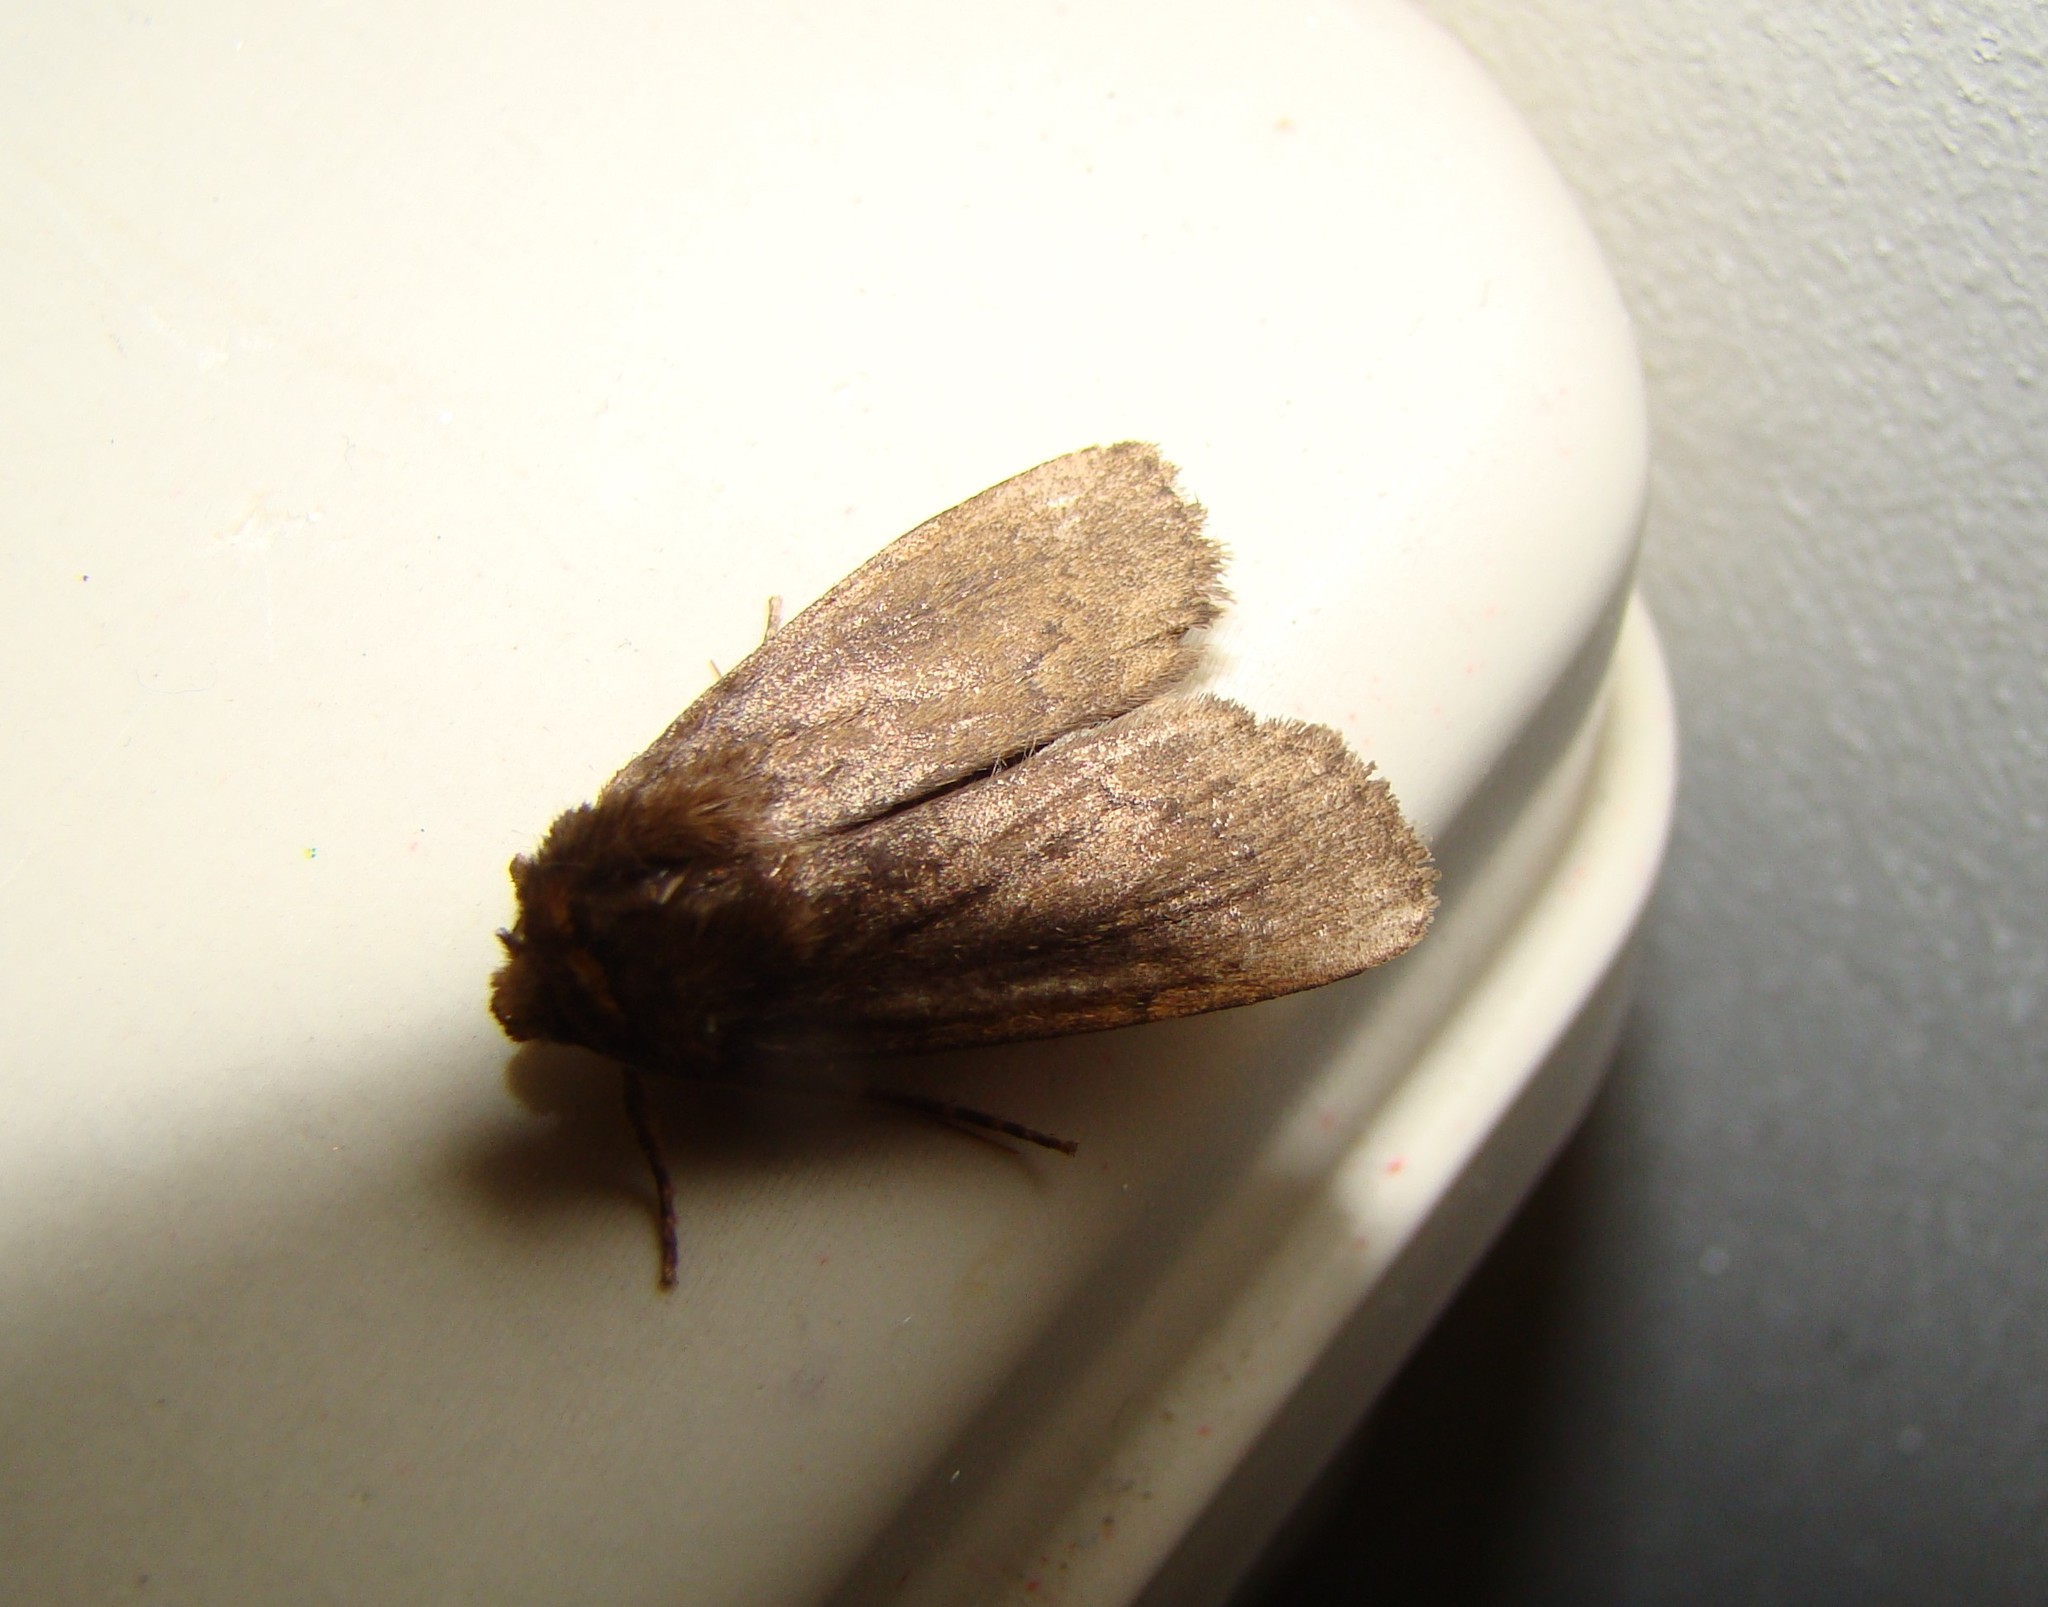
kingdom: Animalia
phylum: Arthropoda
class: Insecta
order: Lepidoptera
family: Noctuidae
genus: Bityla
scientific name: Bityla defigurata
